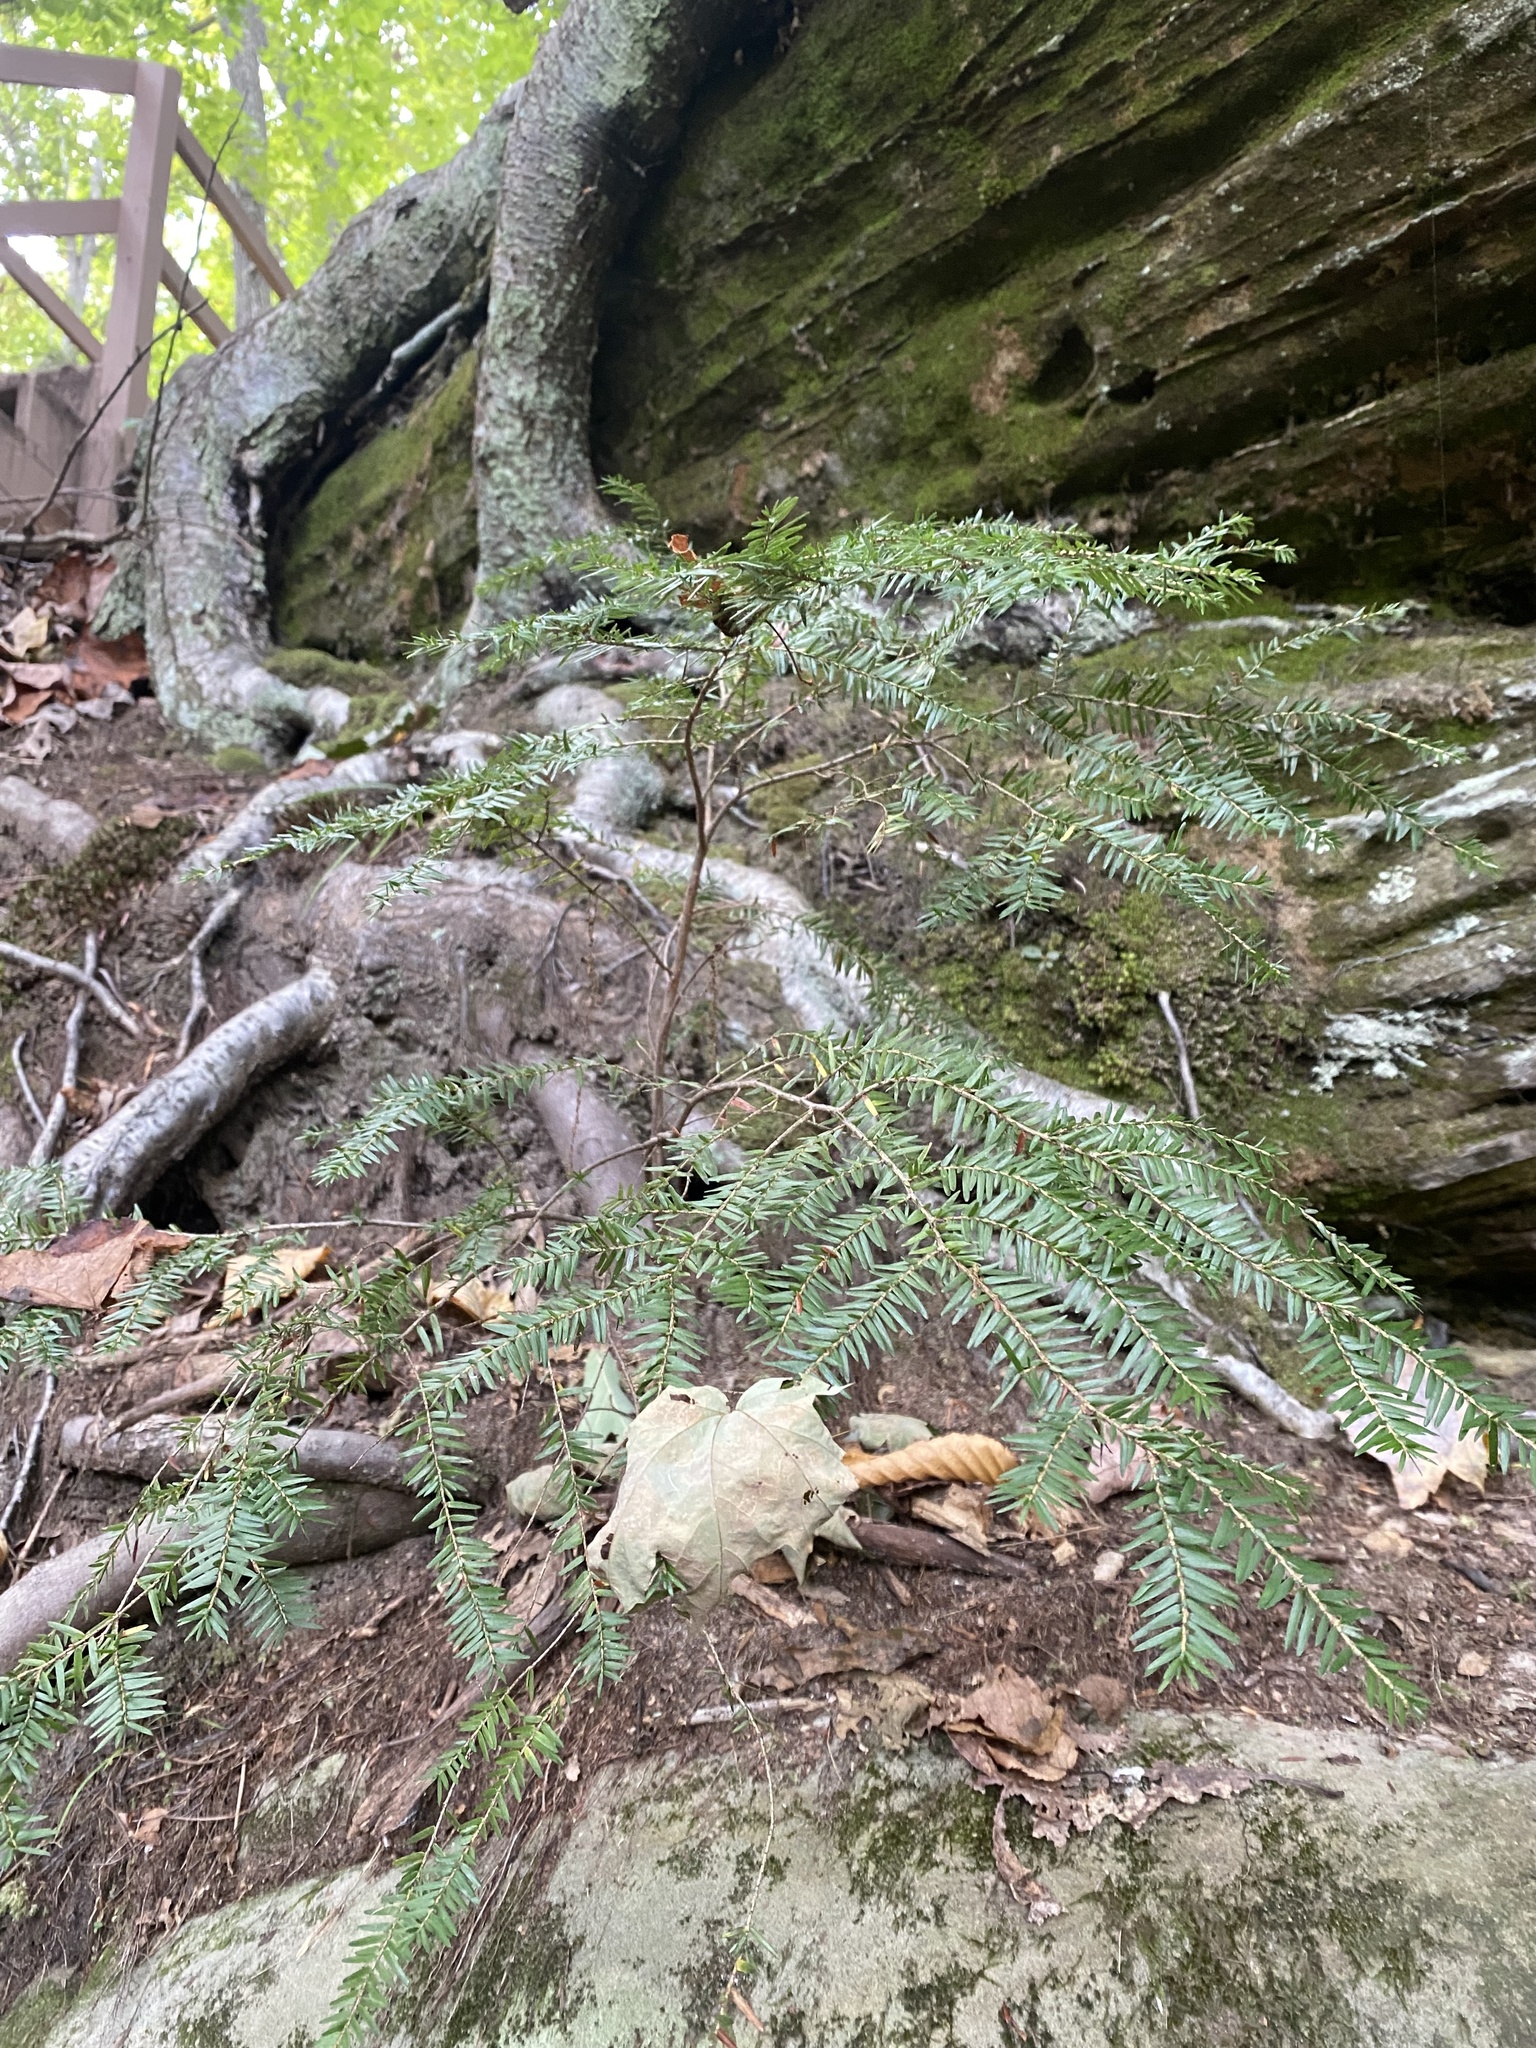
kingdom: Plantae
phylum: Tracheophyta
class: Pinopsida
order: Pinales
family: Pinaceae
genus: Tsuga
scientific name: Tsuga canadensis
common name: Eastern hemlock
